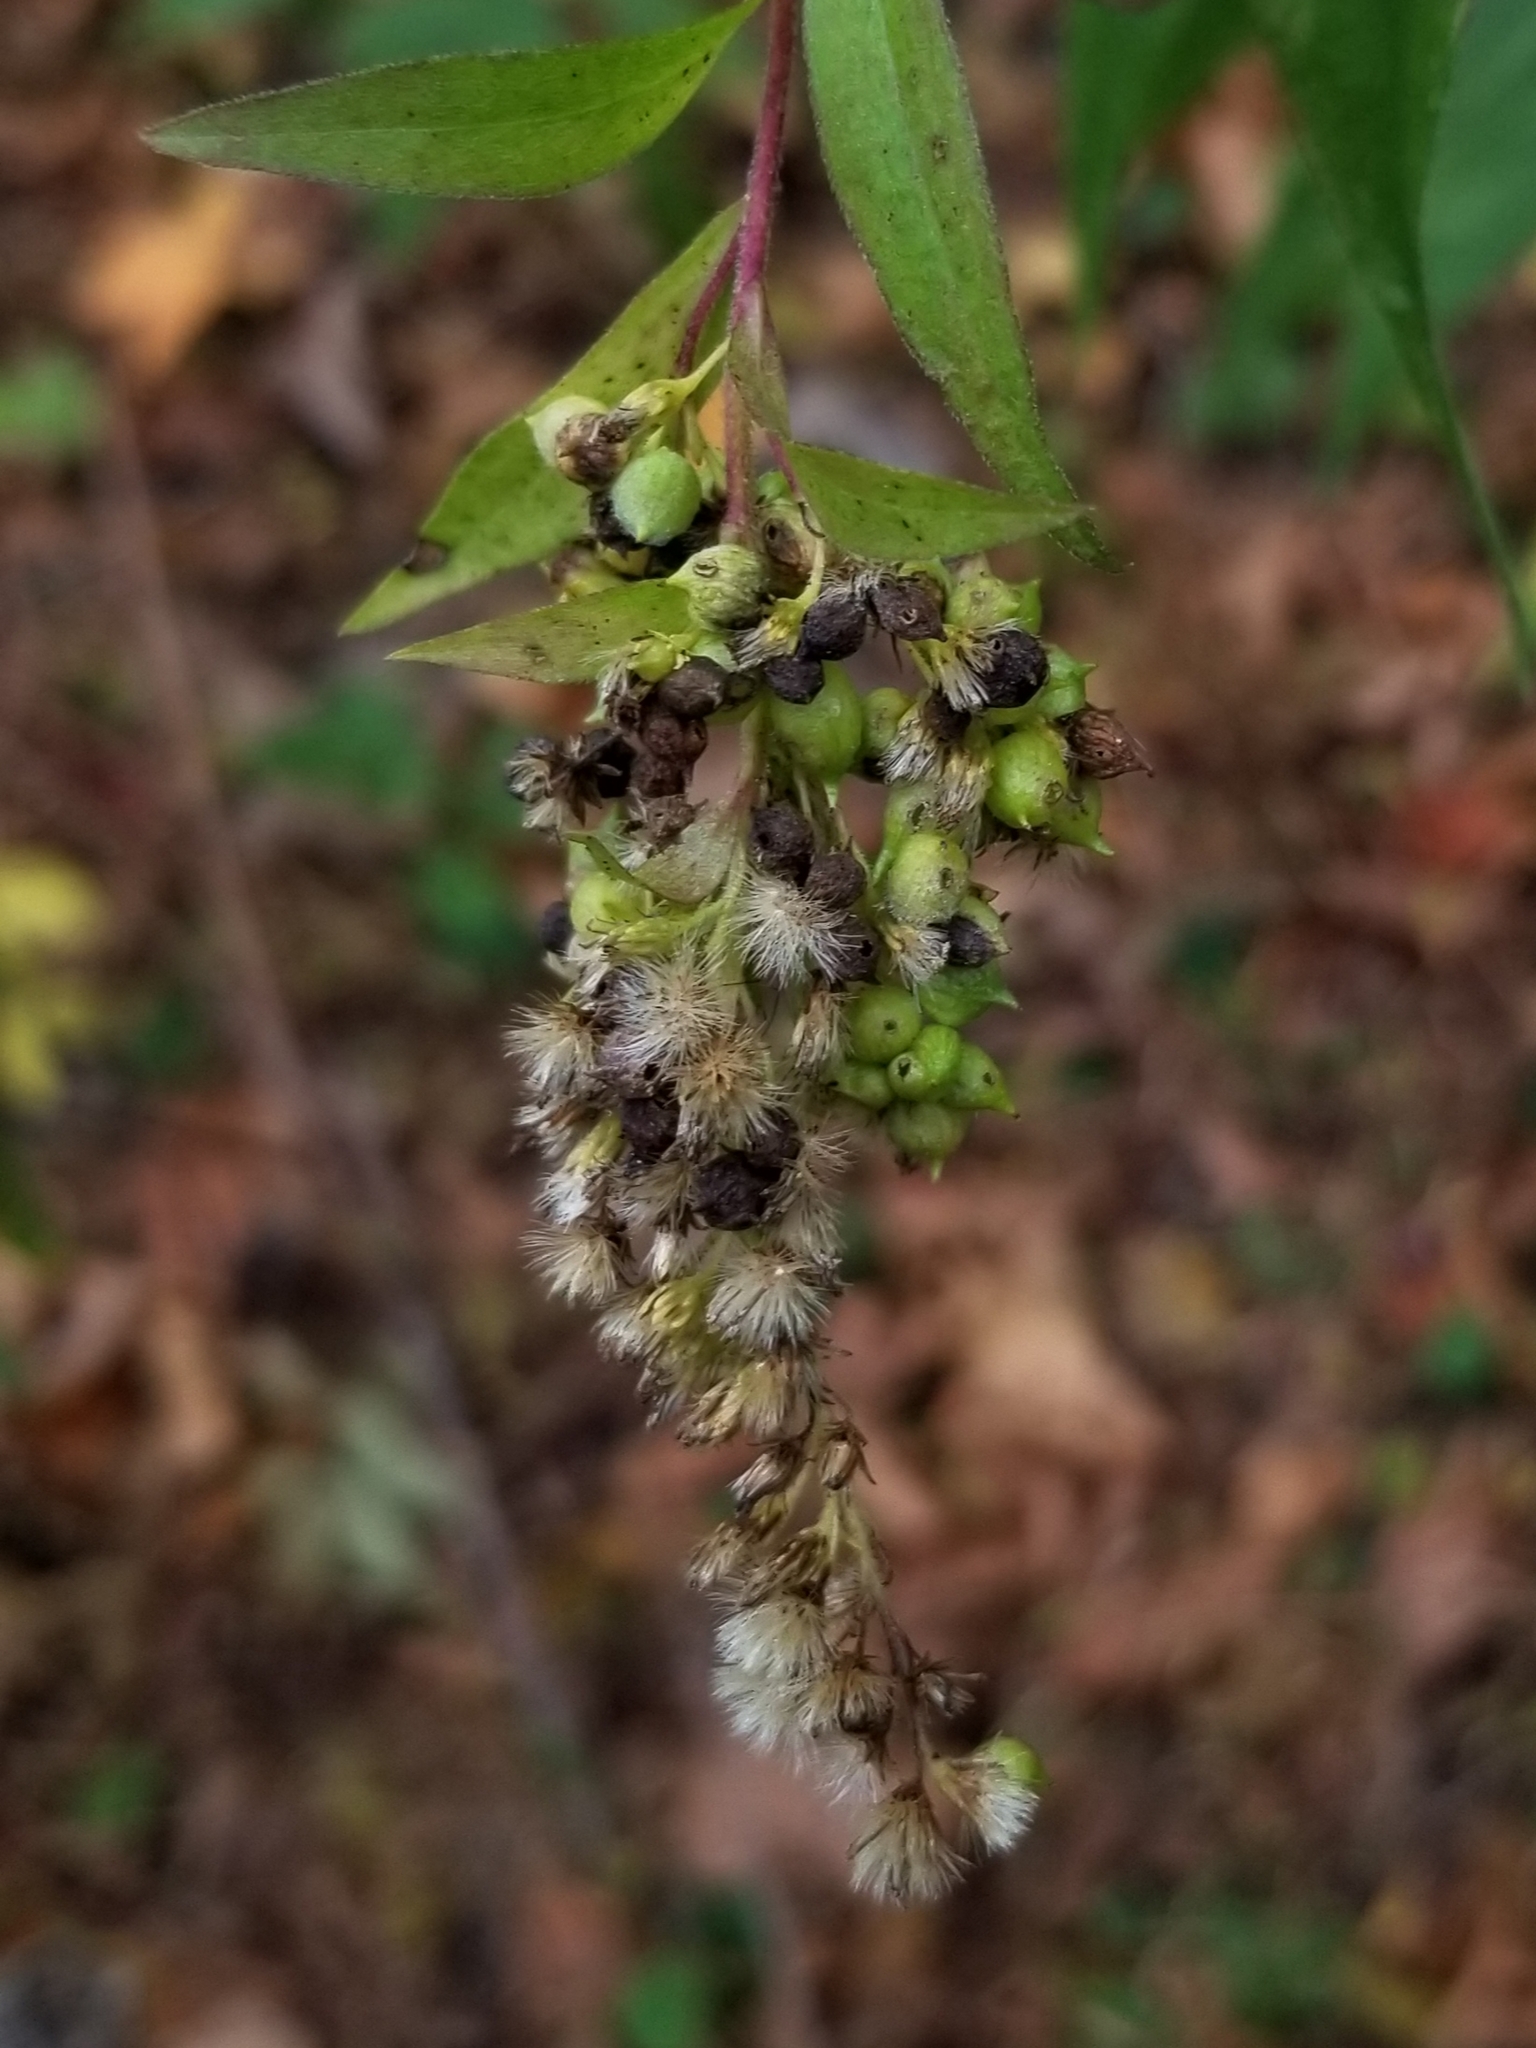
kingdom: Animalia
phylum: Arthropoda
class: Insecta
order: Diptera
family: Cecidomyiidae
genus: Schizomyia
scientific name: Schizomyia racemicola
